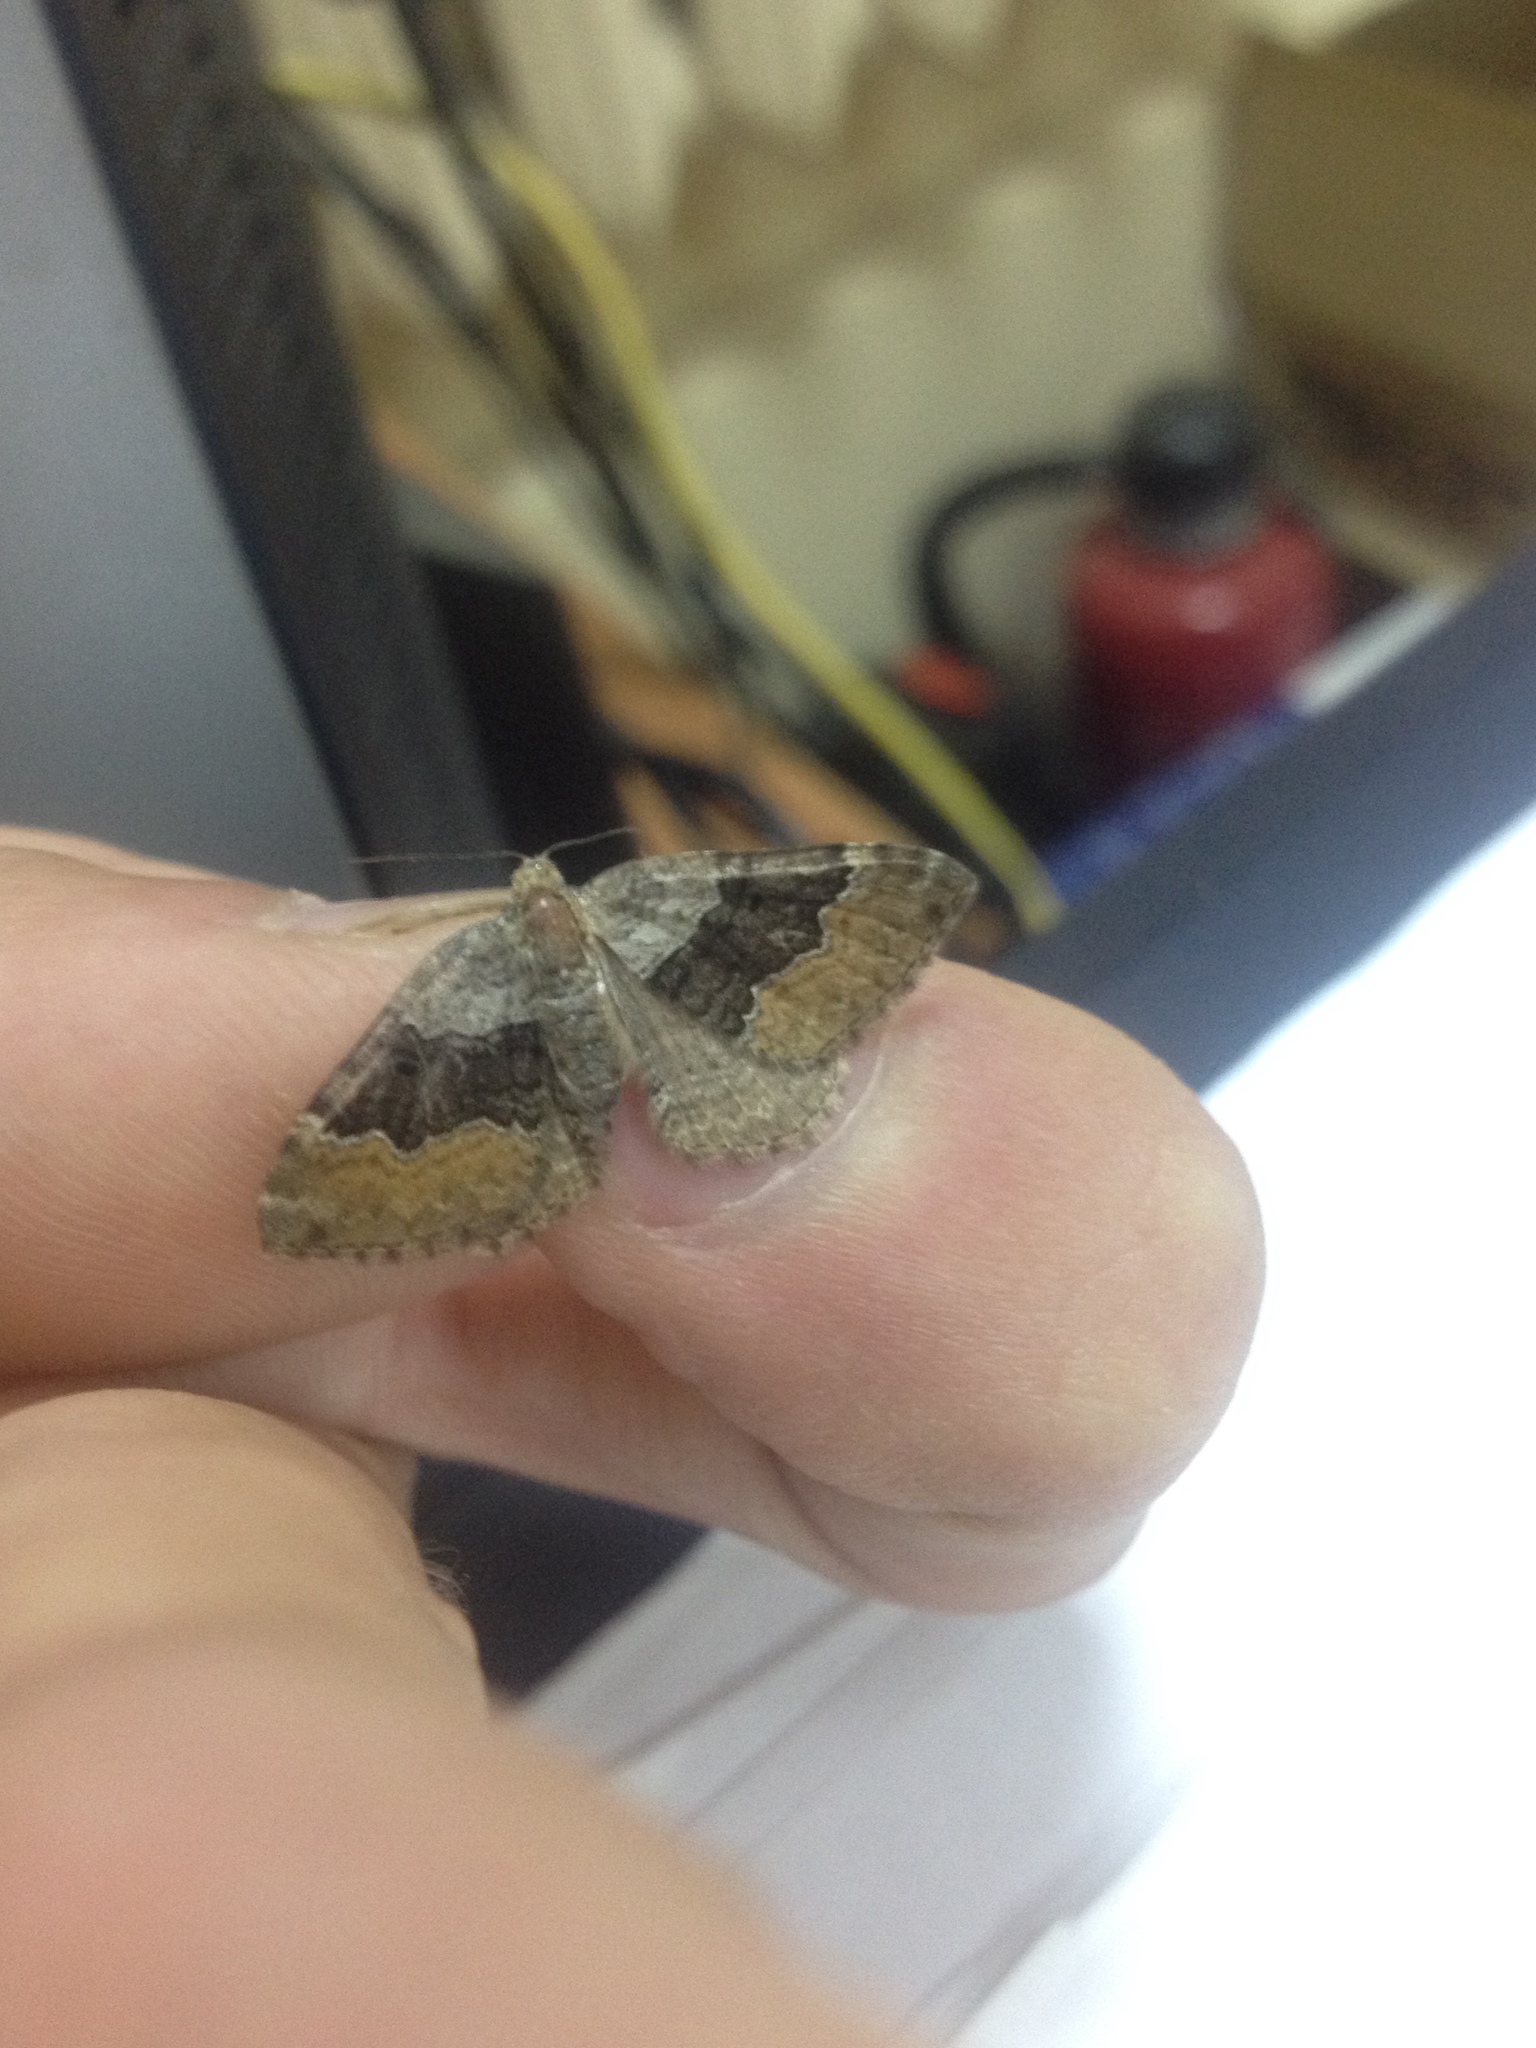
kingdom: Animalia
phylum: Arthropoda
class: Insecta
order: Lepidoptera
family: Geometridae
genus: Xanthorhoe
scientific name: Xanthorhoe quadrifasiata
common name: Large twin-spot carpet
